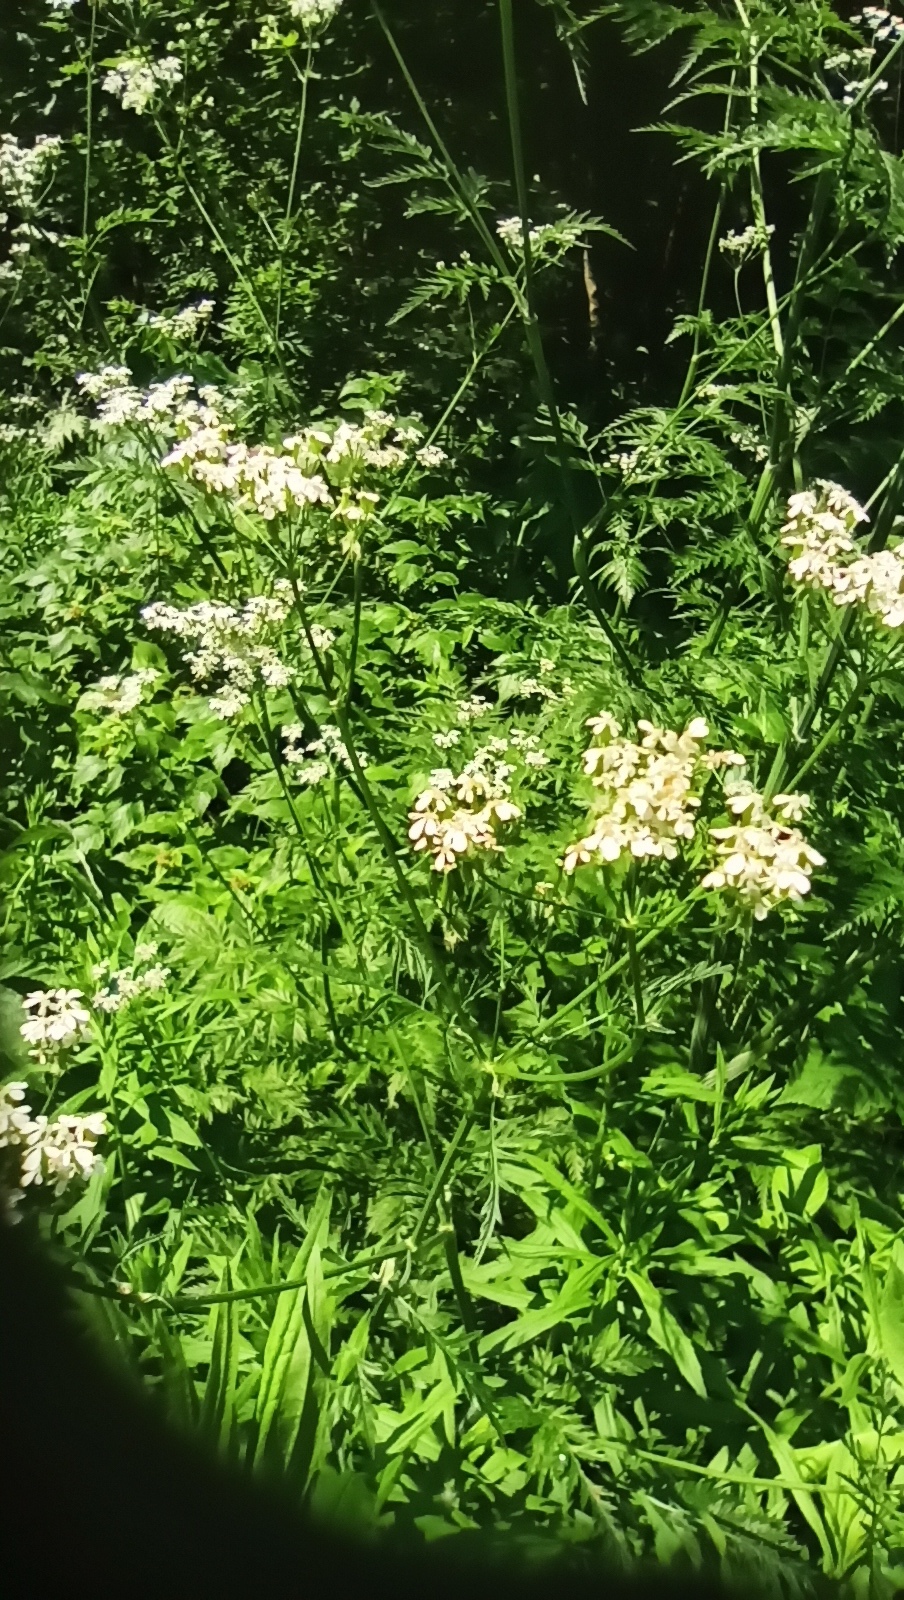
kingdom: Plantae
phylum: Tracheophyta
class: Magnoliopsida
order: Apiales
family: Apiaceae
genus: Anthriscus
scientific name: Anthriscus sylvestris
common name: Cow parsley
